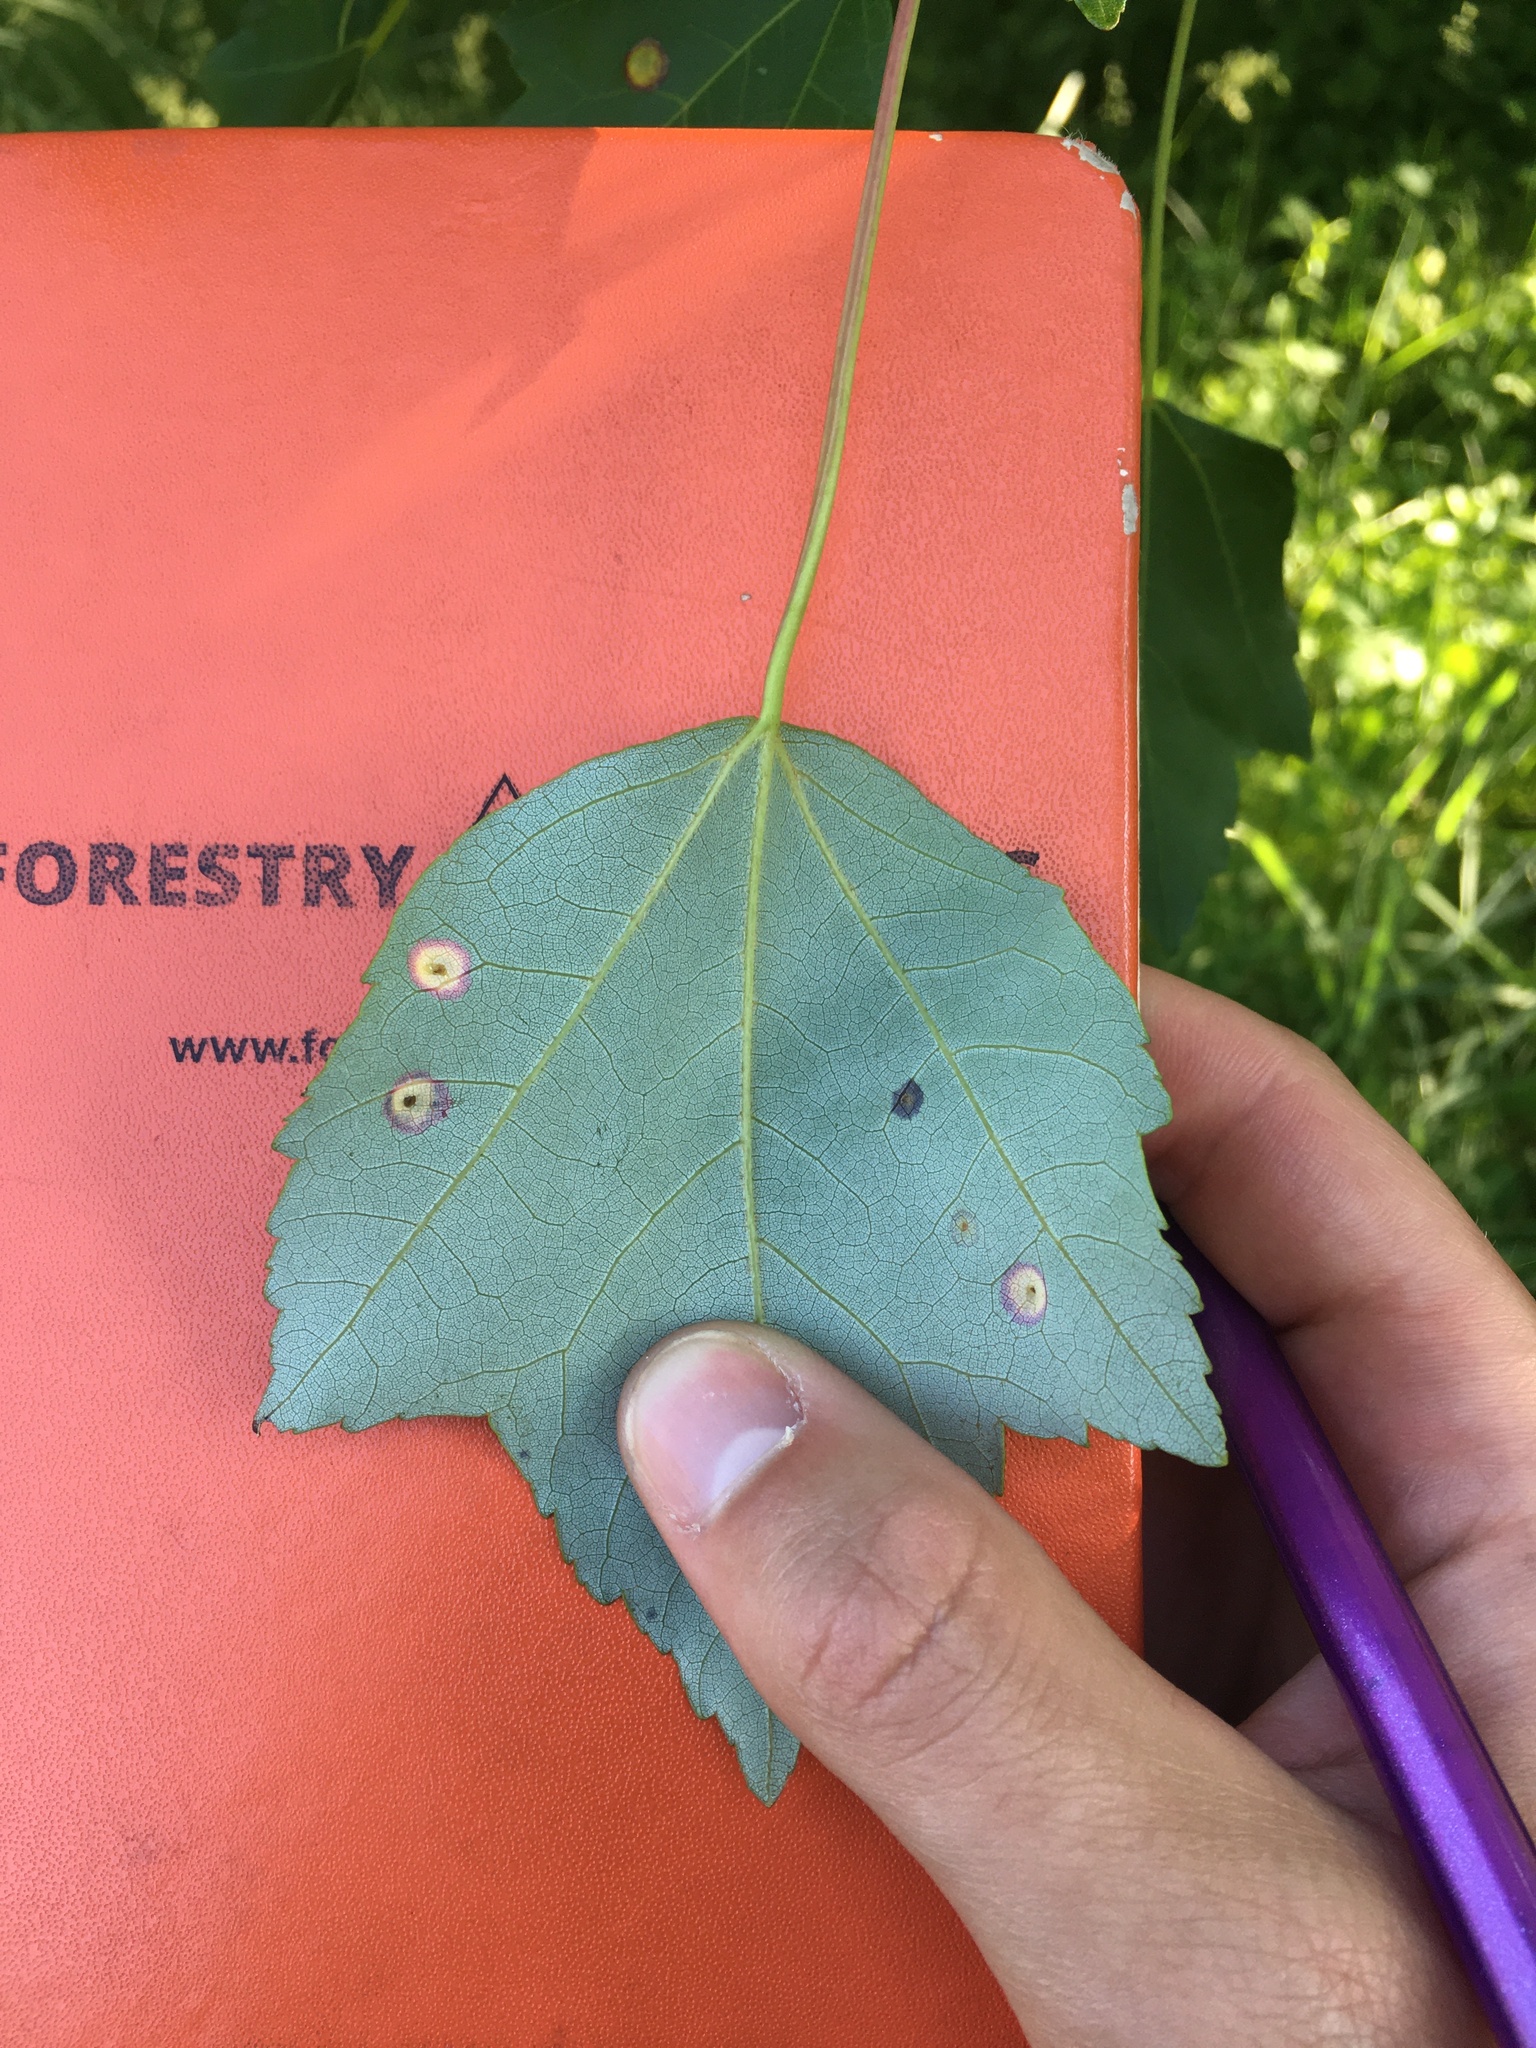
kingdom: Animalia
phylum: Arthropoda
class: Insecta
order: Diptera
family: Cecidomyiidae
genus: Acericecis
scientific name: Acericecis ocellaris
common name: Ocellate gall midge
